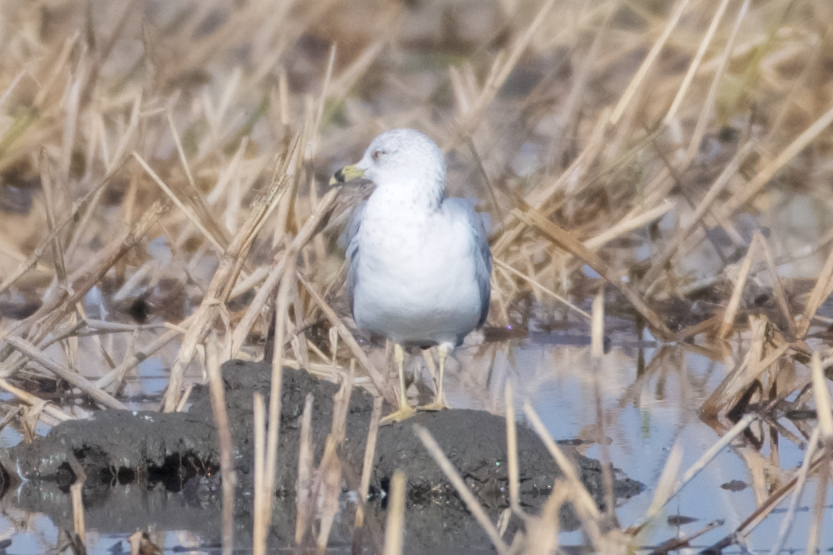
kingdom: Animalia
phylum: Chordata
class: Aves
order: Charadriiformes
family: Laridae
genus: Larus
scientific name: Larus delawarensis
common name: Ring-billed gull
